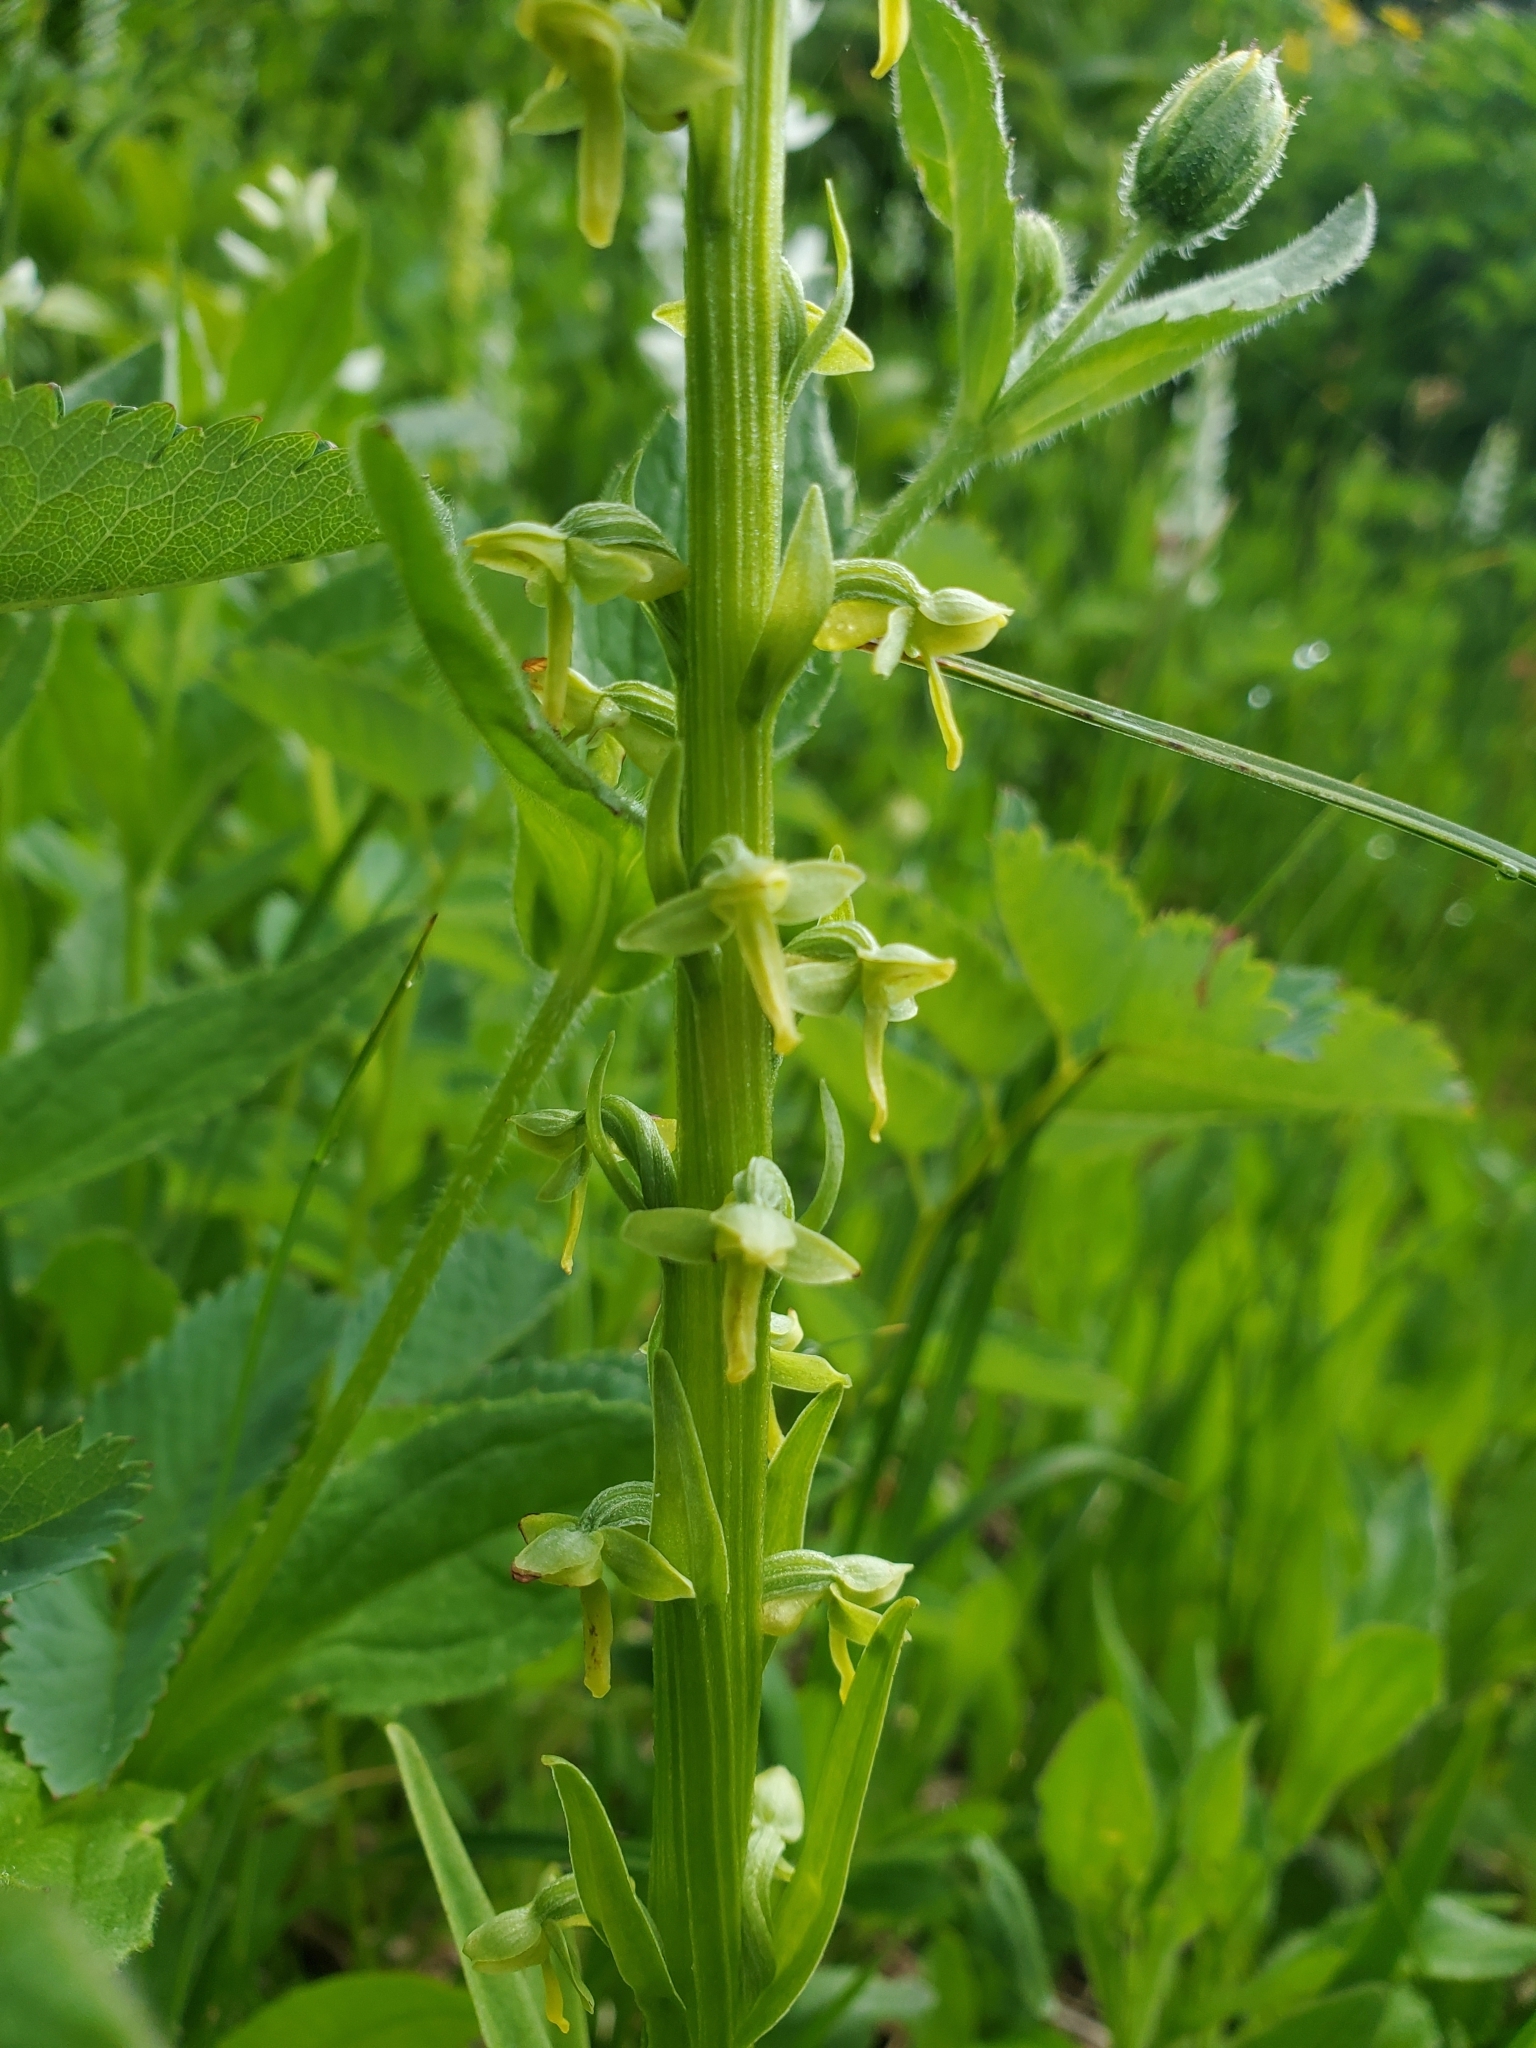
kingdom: Plantae
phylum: Tracheophyta
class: Liliopsida
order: Asparagales
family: Orchidaceae
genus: Platanthera
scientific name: Platanthera stricta
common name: Slender bog orchid
